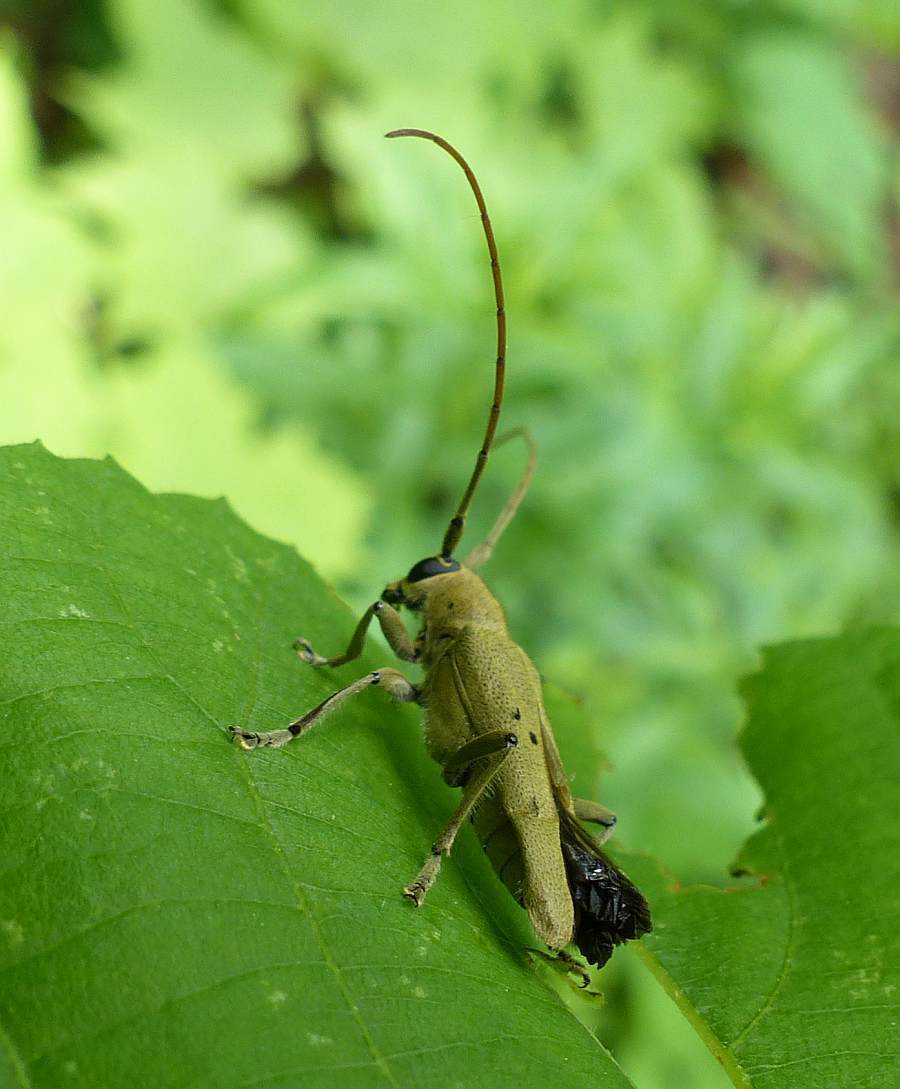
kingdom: Animalia
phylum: Arthropoda
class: Insecta
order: Coleoptera
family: Cerambycidae
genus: Saperda
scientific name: Saperda vestita
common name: Linden borer
